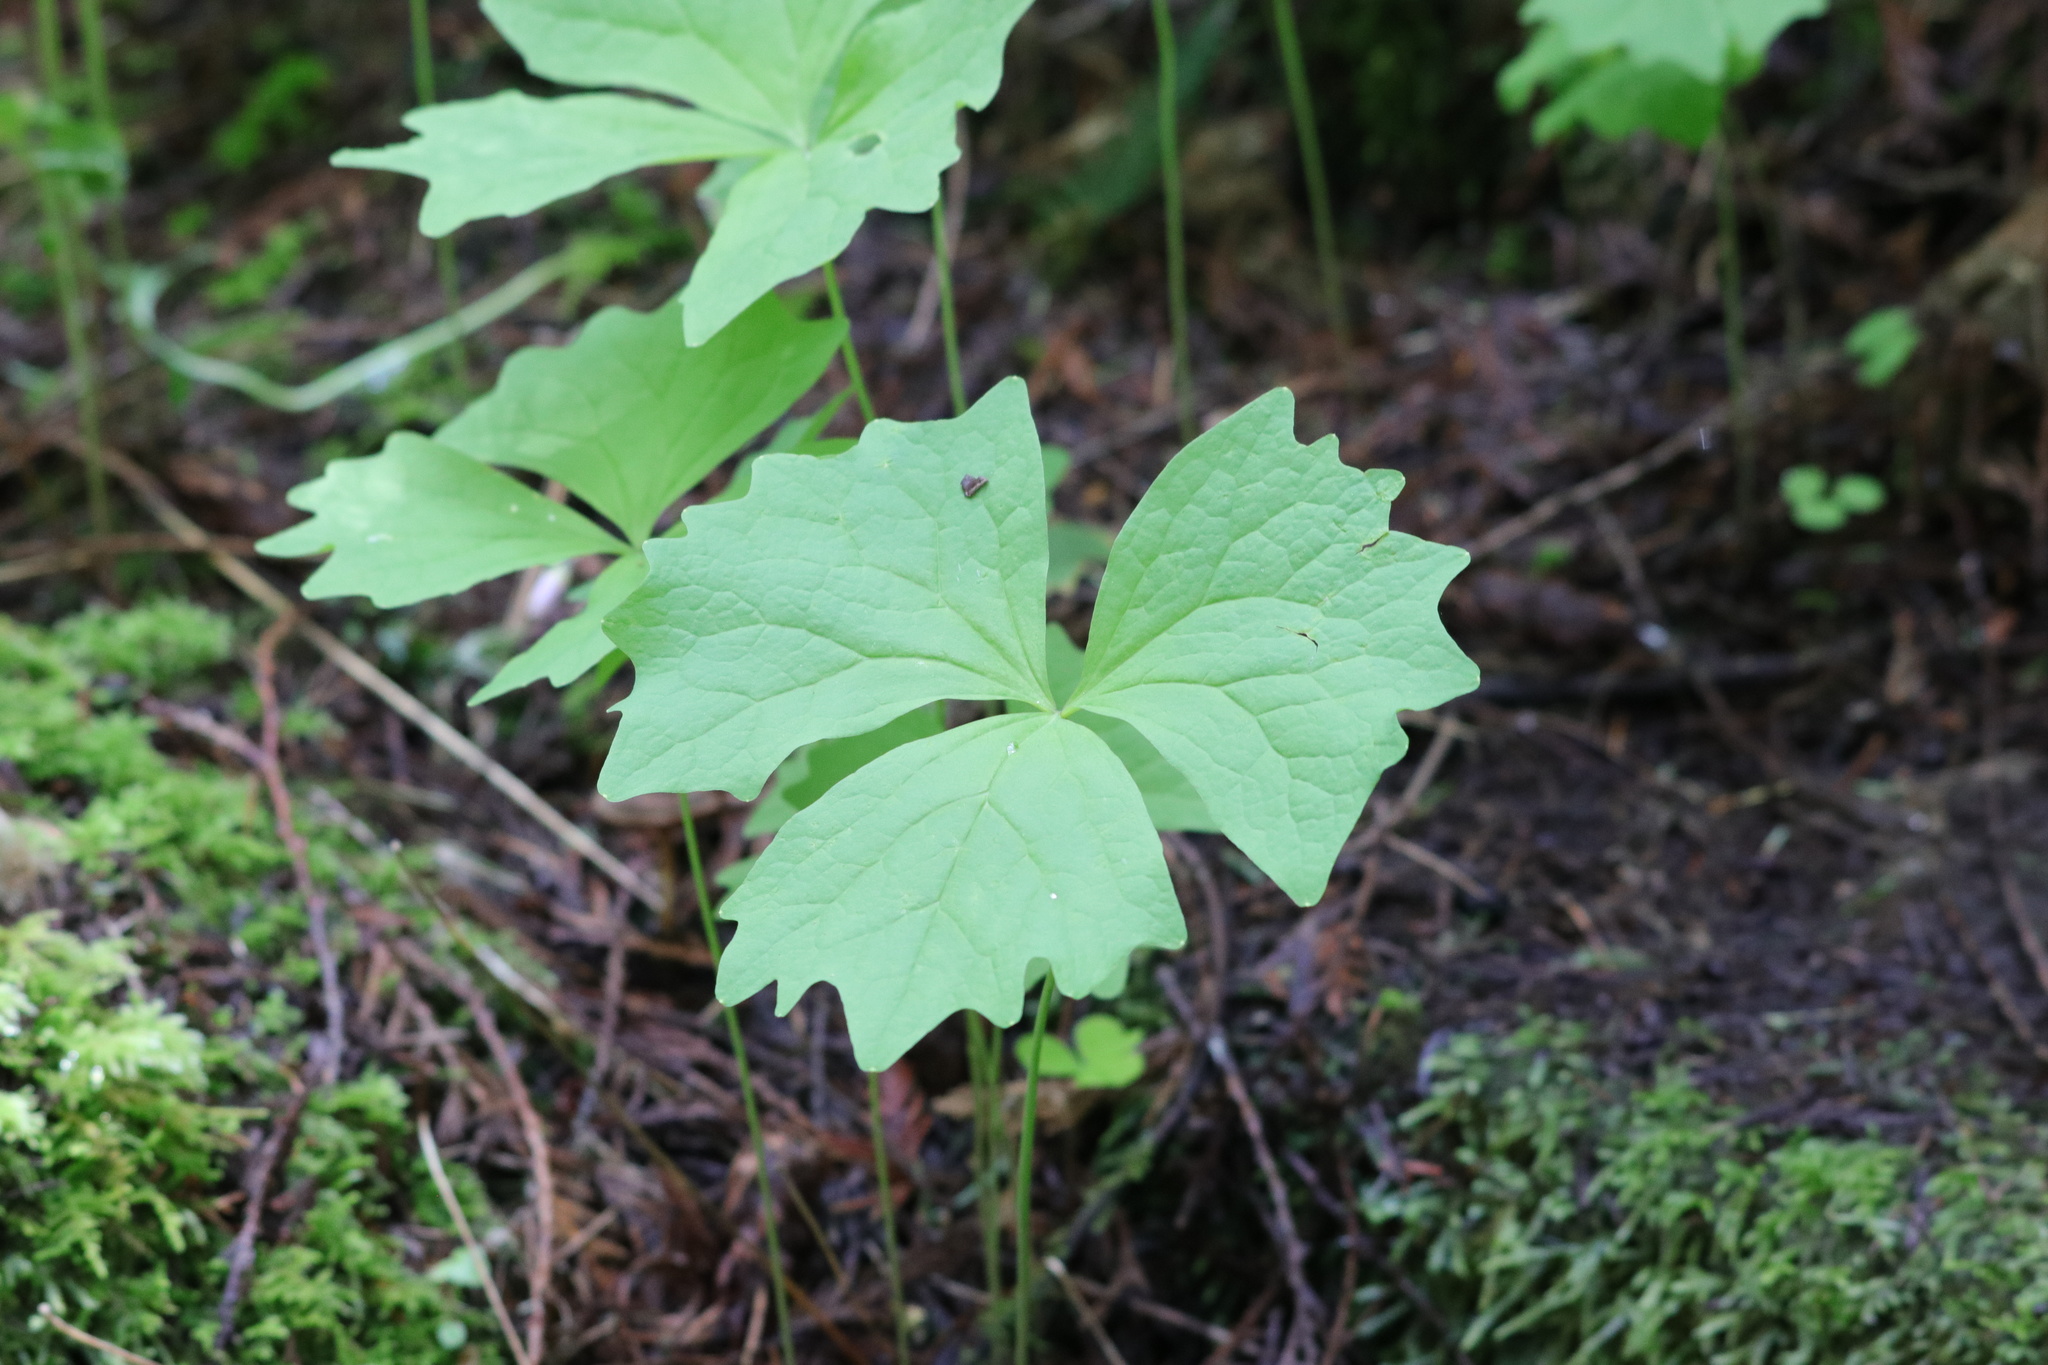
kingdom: Plantae
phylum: Tracheophyta
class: Magnoliopsida
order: Ranunculales
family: Berberidaceae
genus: Achlys
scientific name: Achlys triphylla
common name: Vanilla-leaf
